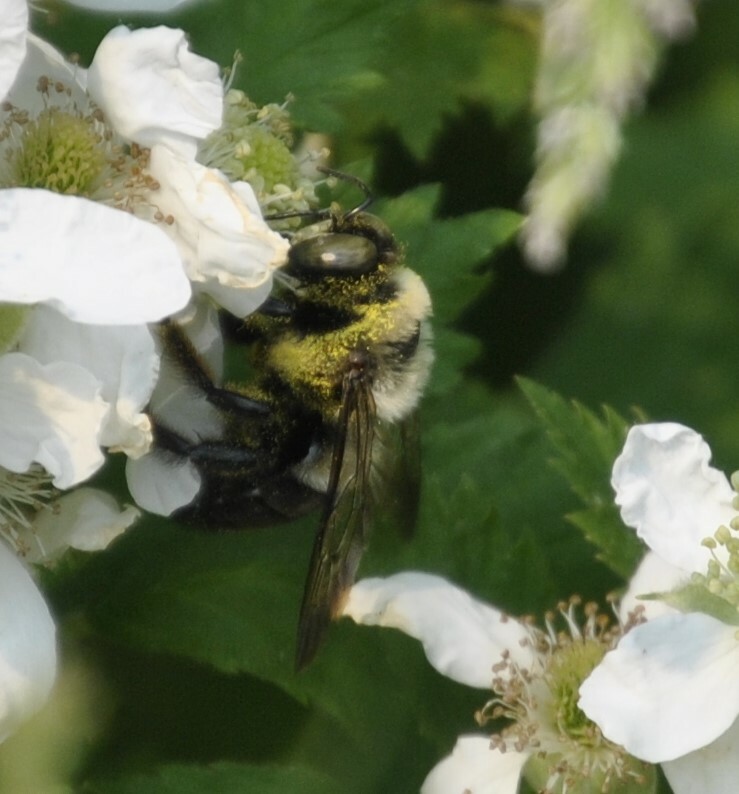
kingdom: Animalia
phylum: Arthropoda
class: Insecta
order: Hymenoptera
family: Apidae
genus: Xylocopa
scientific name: Xylocopa virginica
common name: Carpenter bee
